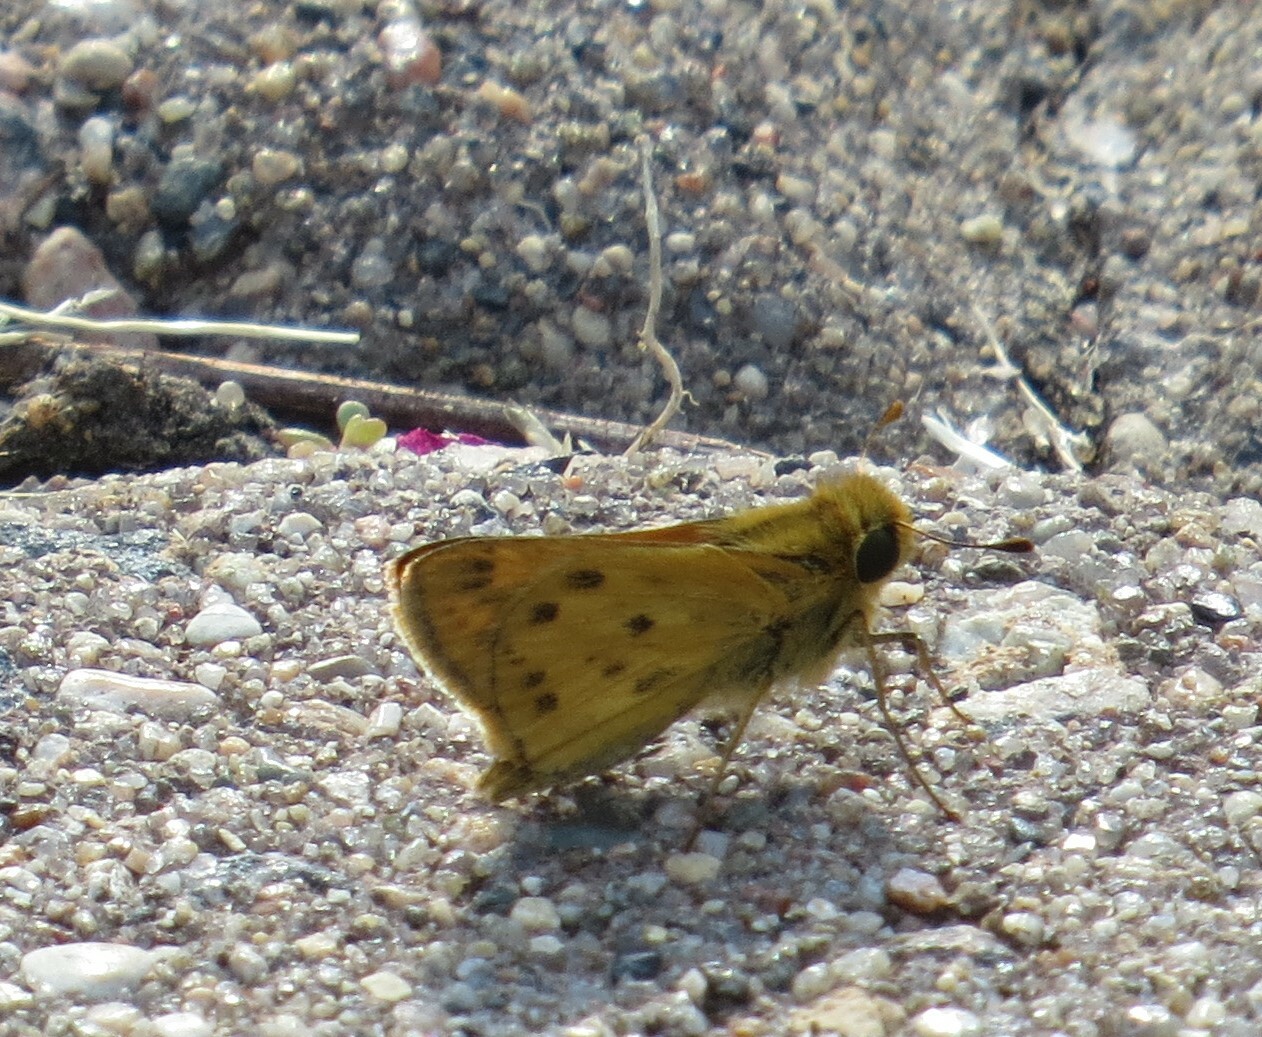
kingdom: Animalia
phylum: Arthropoda
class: Insecta
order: Lepidoptera
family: Hesperiidae
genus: Hylephila
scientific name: Hylephila phyleus
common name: Fiery skipper
